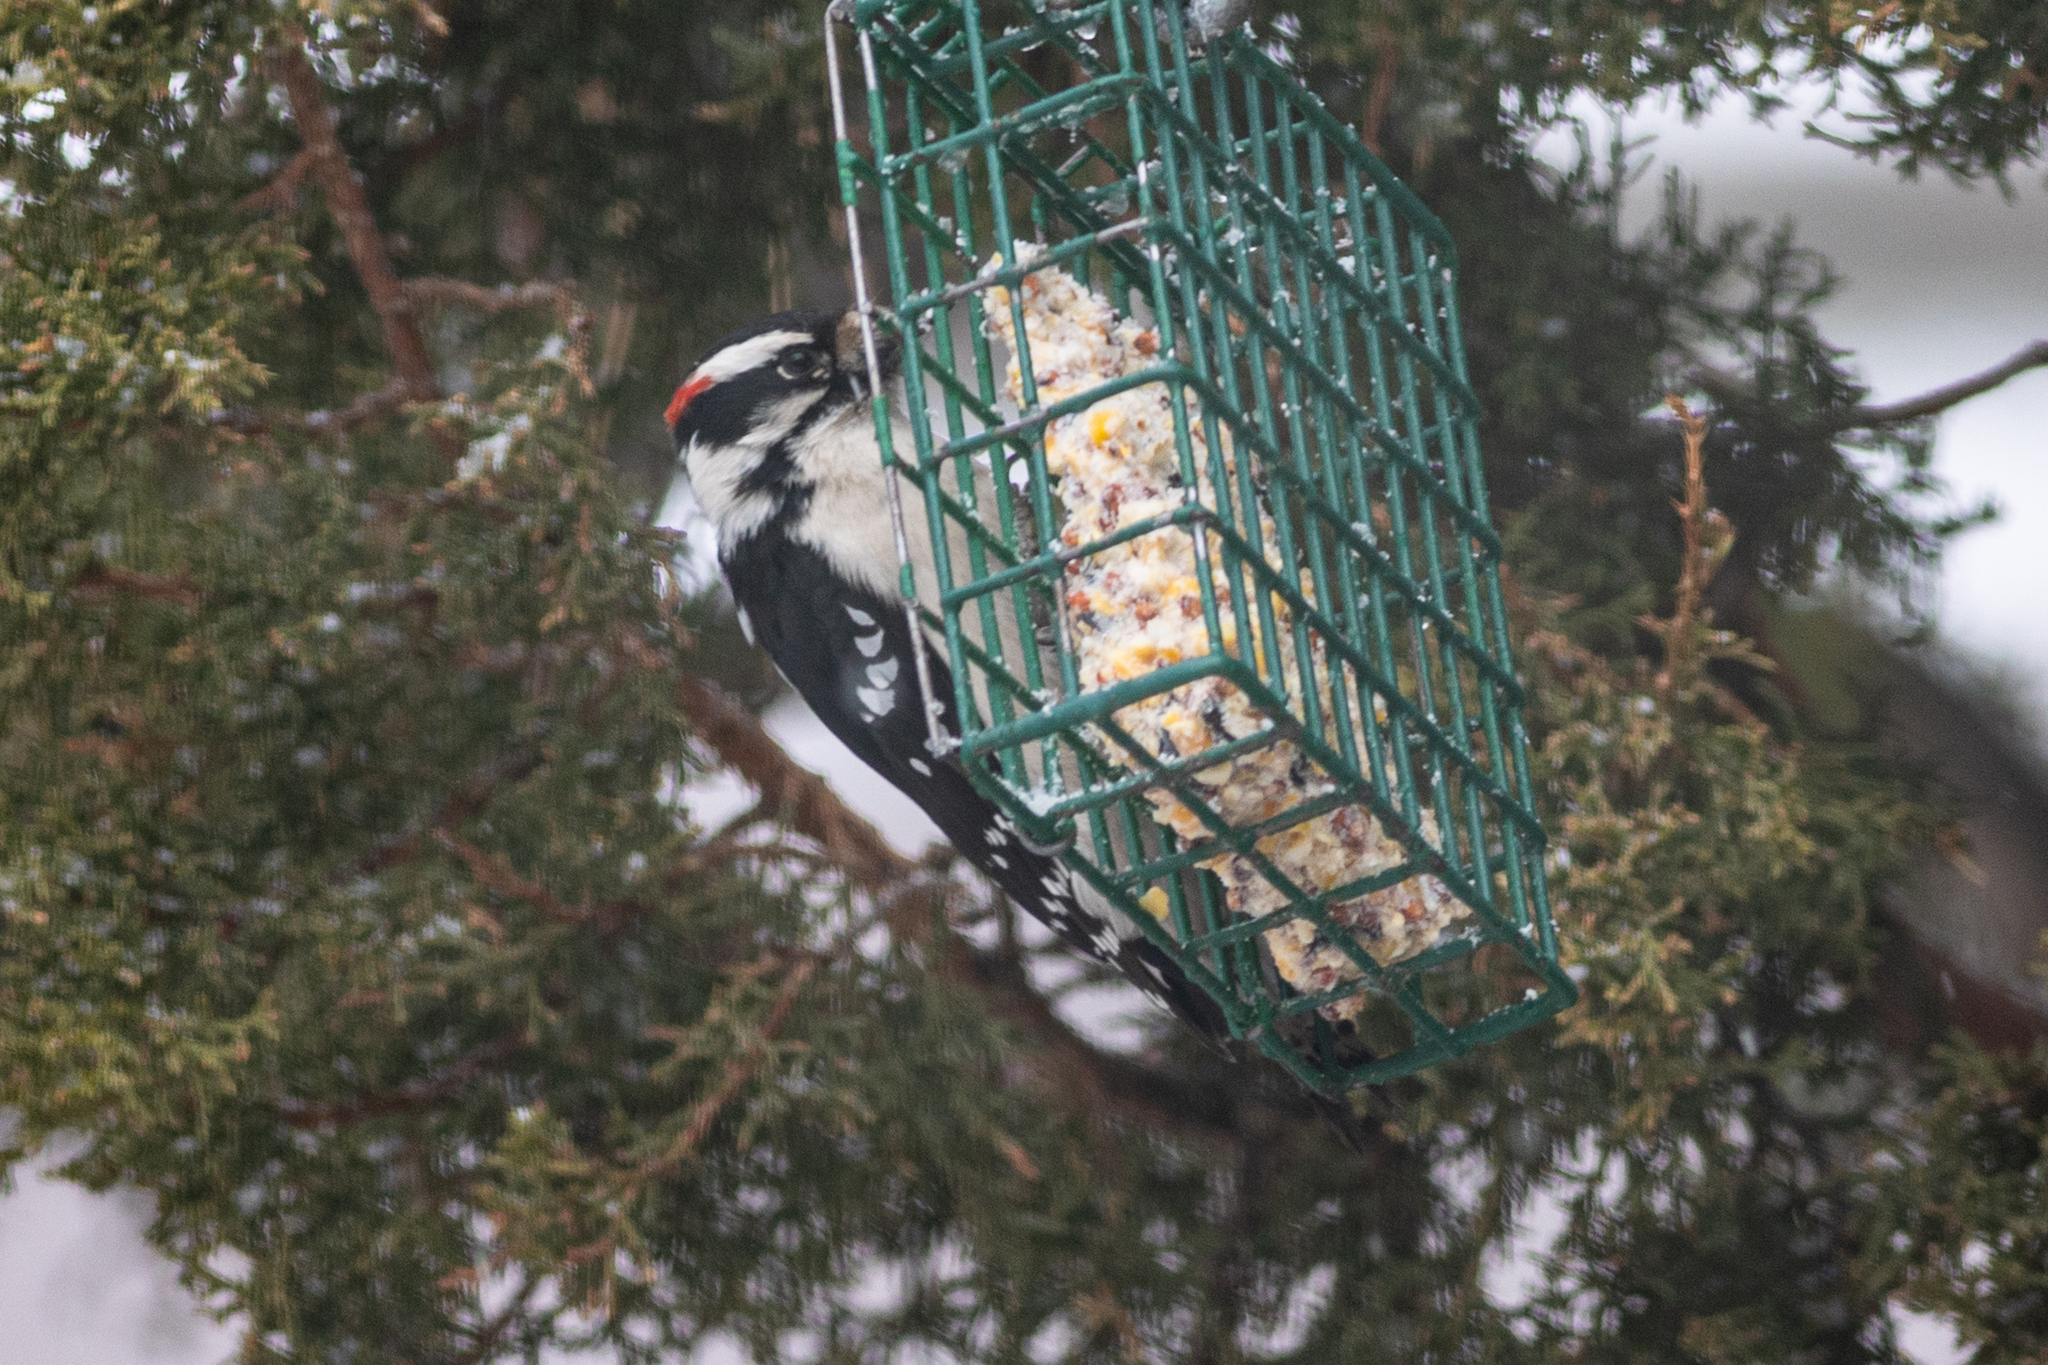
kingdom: Animalia
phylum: Chordata
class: Aves
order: Piciformes
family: Picidae
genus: Dryobates
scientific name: Dryobates pubescens
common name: Downy woodpecker
